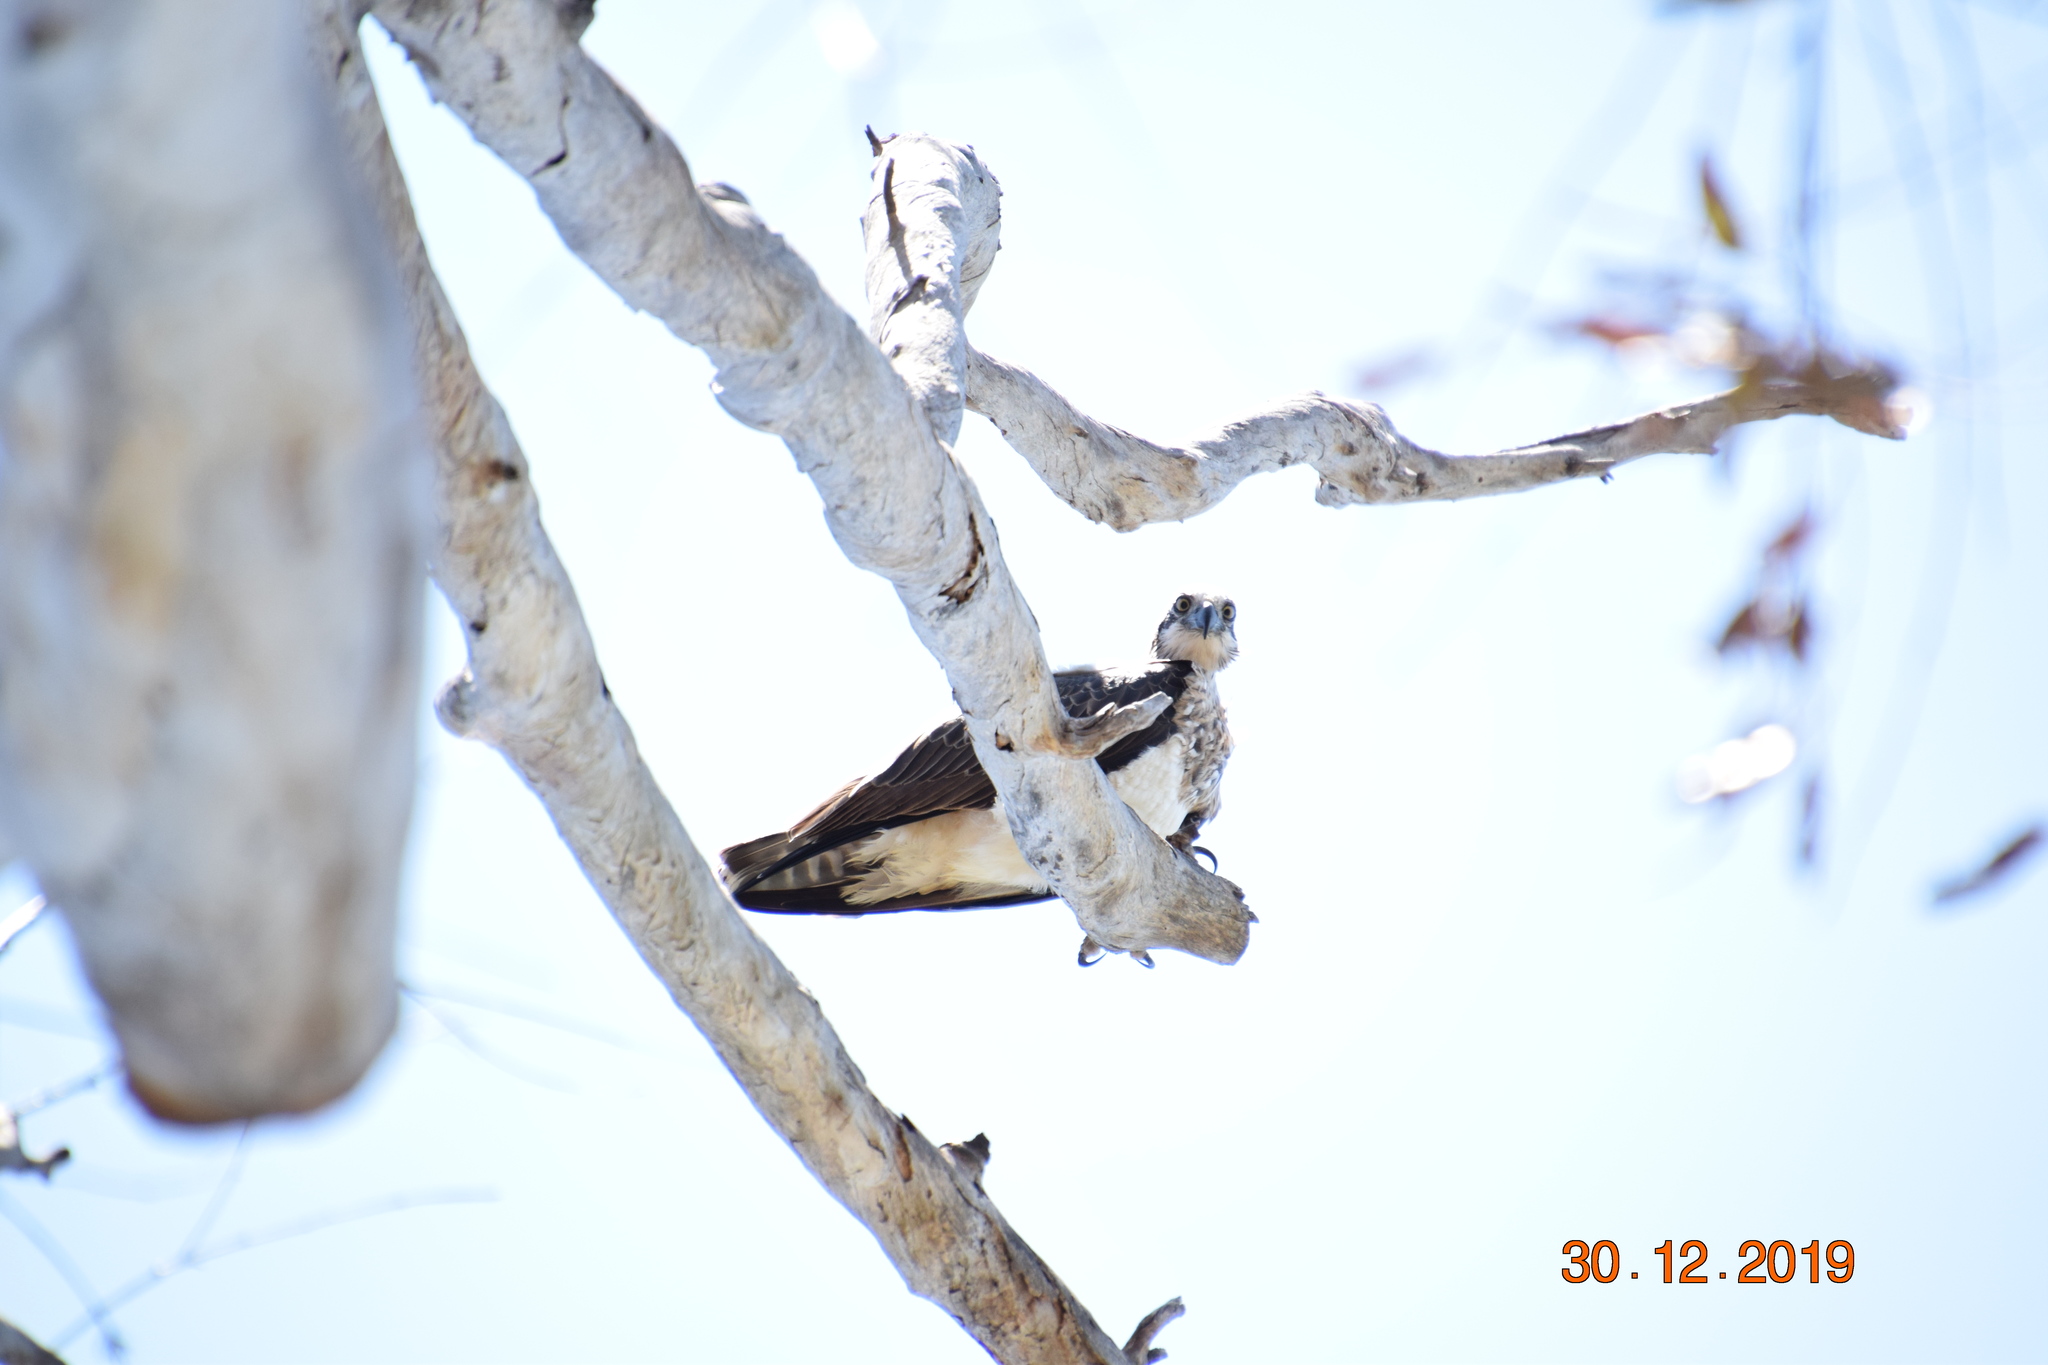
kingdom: Animalia
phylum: Chordata
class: Aves
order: Accipitriformes
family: Pandionidae
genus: Pandion
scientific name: Pandion cristatus
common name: Eastern osprey
